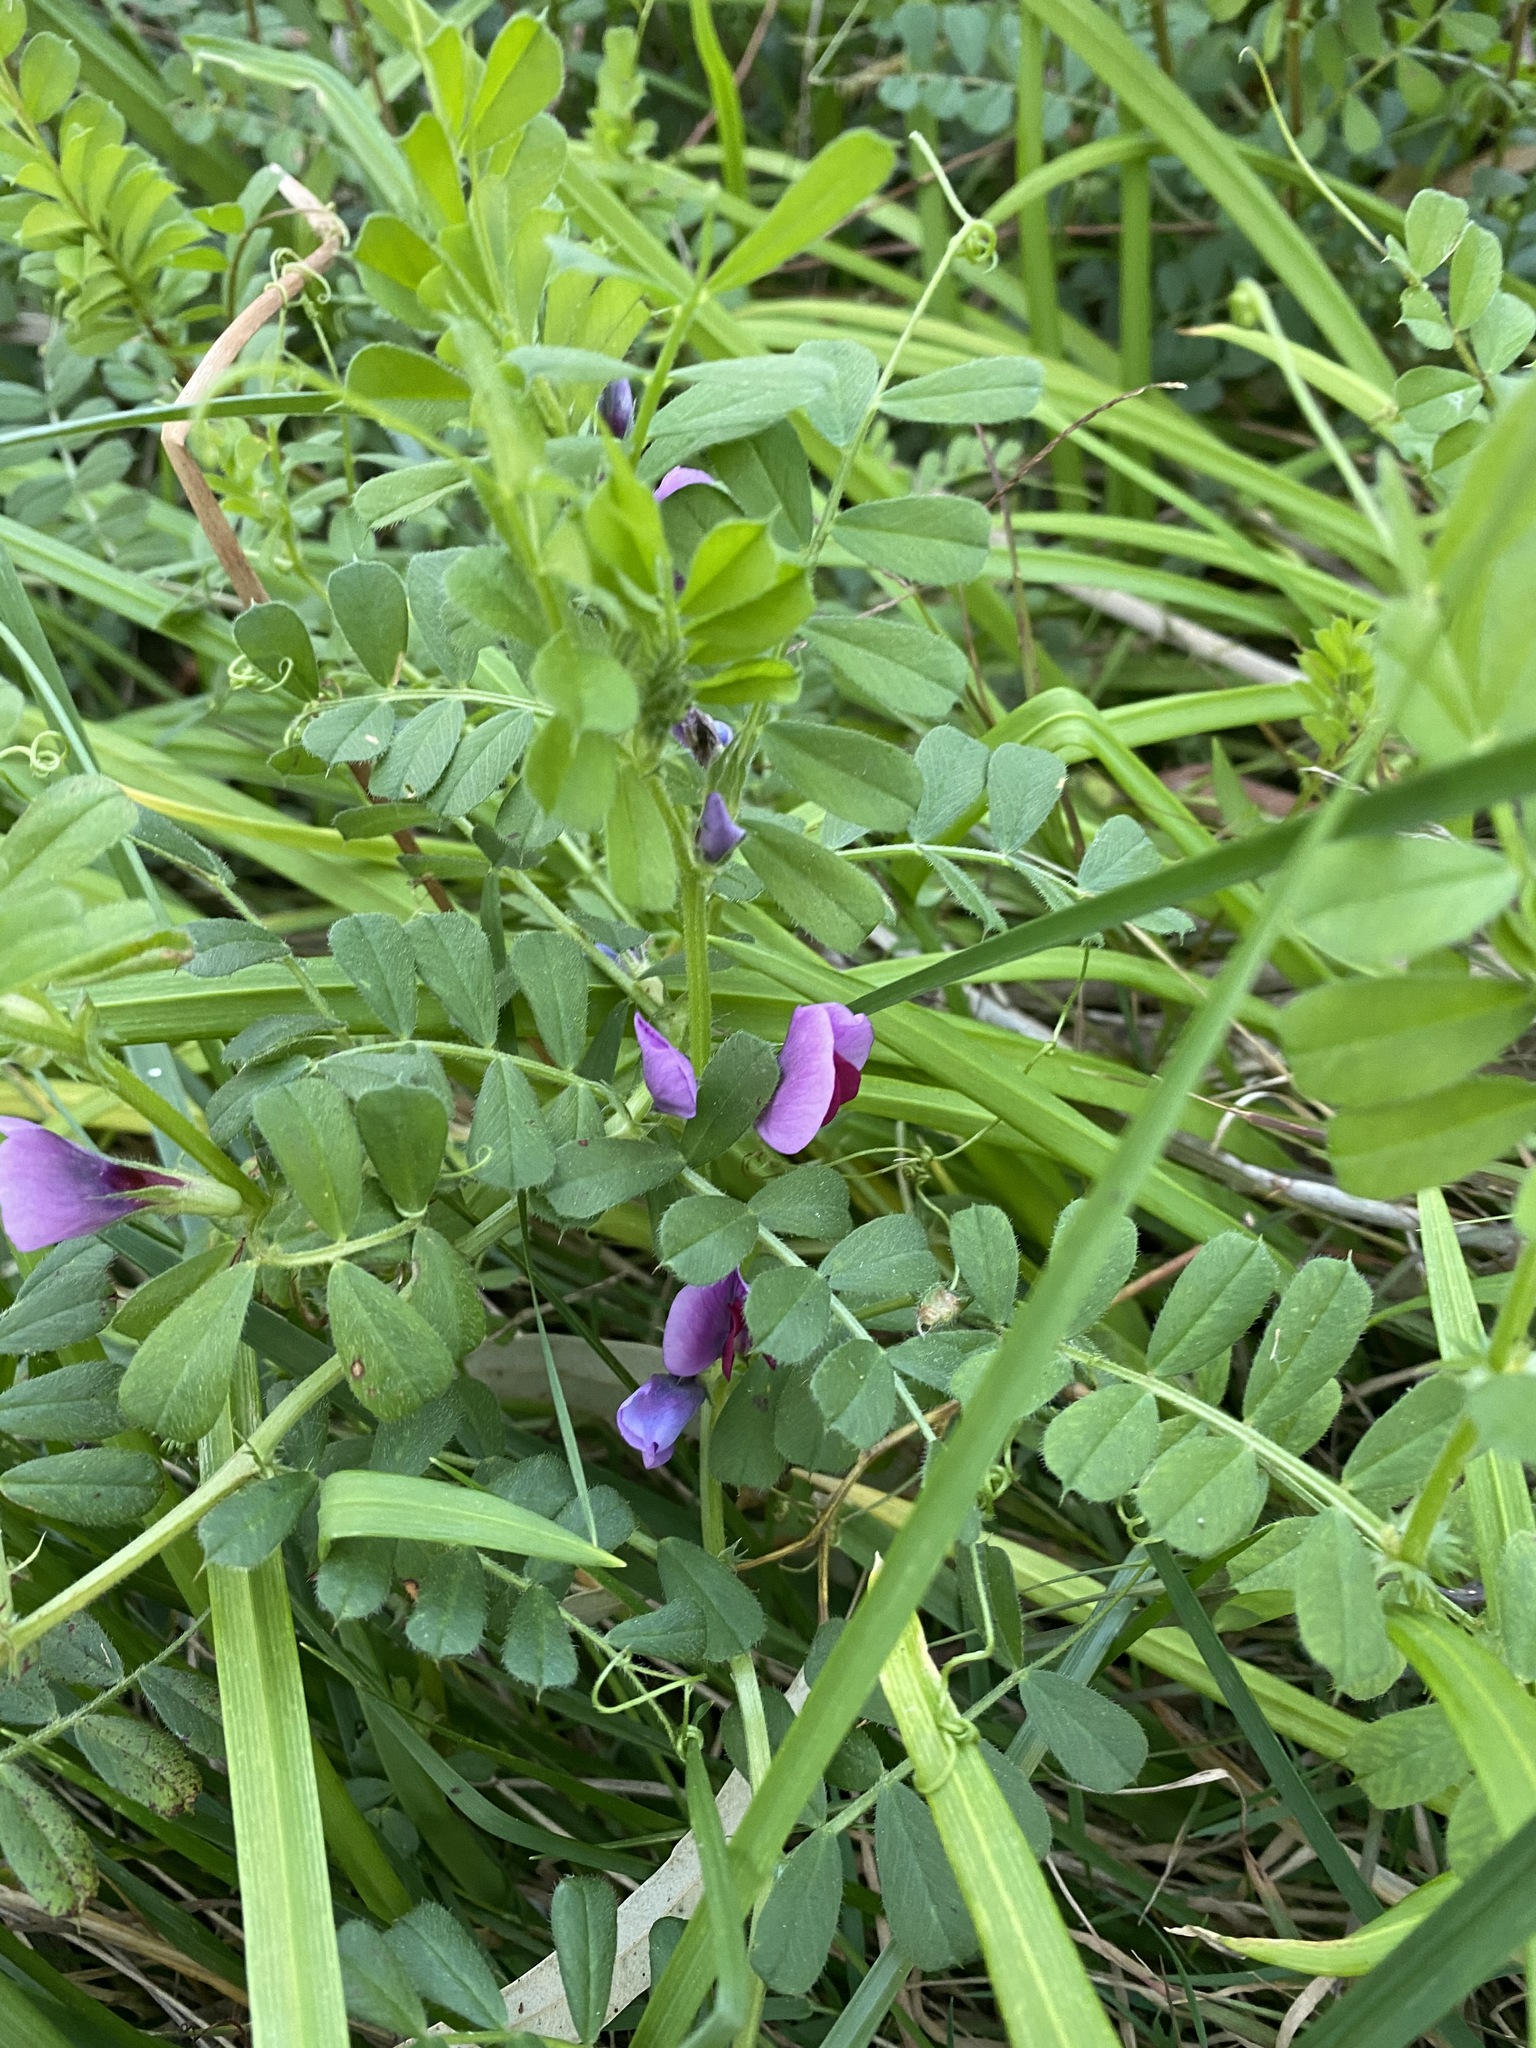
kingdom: Plantae
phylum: Tracheophyta
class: Magnoliopsida
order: Fabales
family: Fabaceae
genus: Vicia
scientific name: Vicia sativa
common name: Garden vetch
